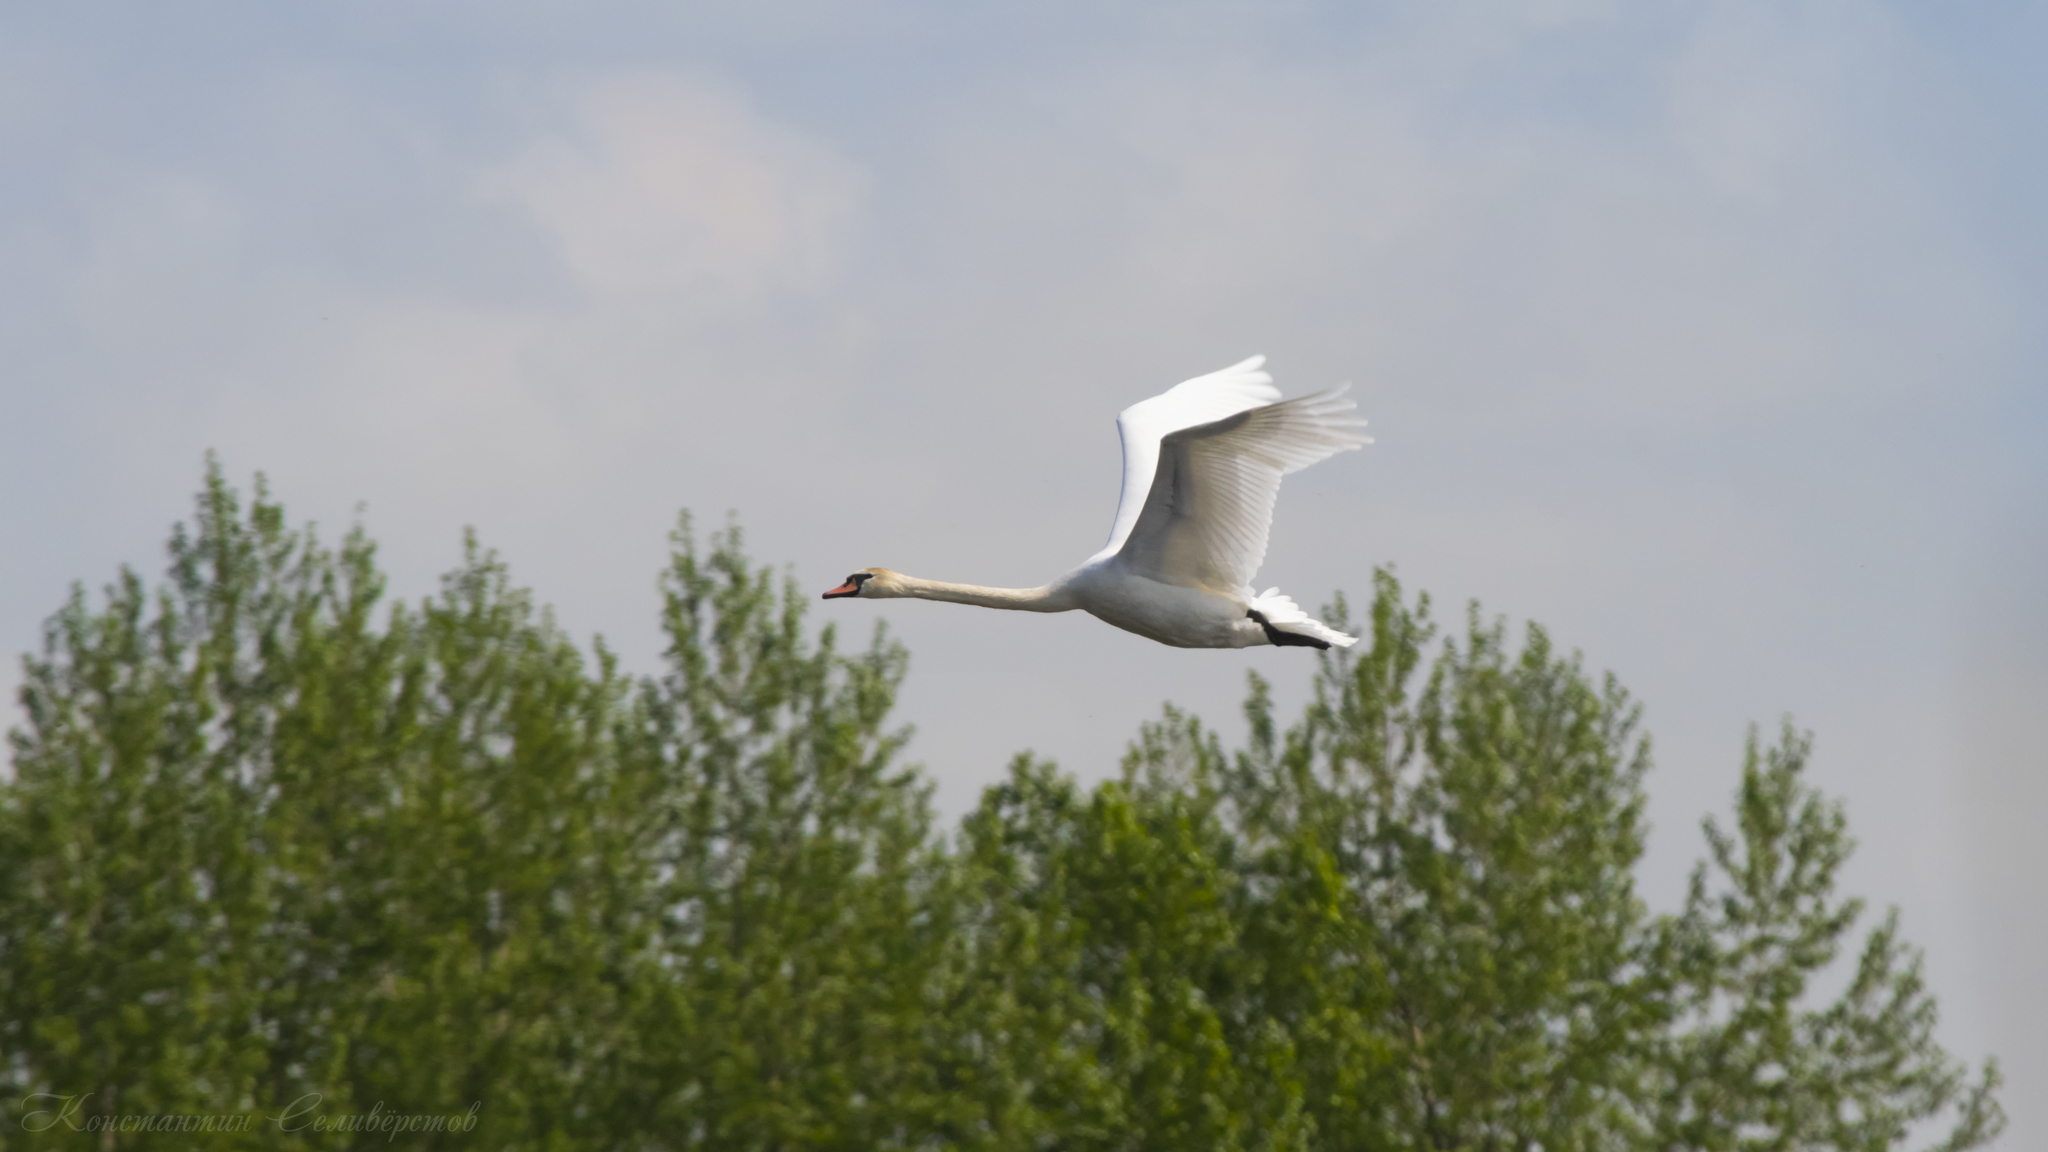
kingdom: Animalia
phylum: Chordata
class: Aves
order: Anseriformes
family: Anatidae
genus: Cygnus
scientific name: Cygnus olor
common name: Mute swan
